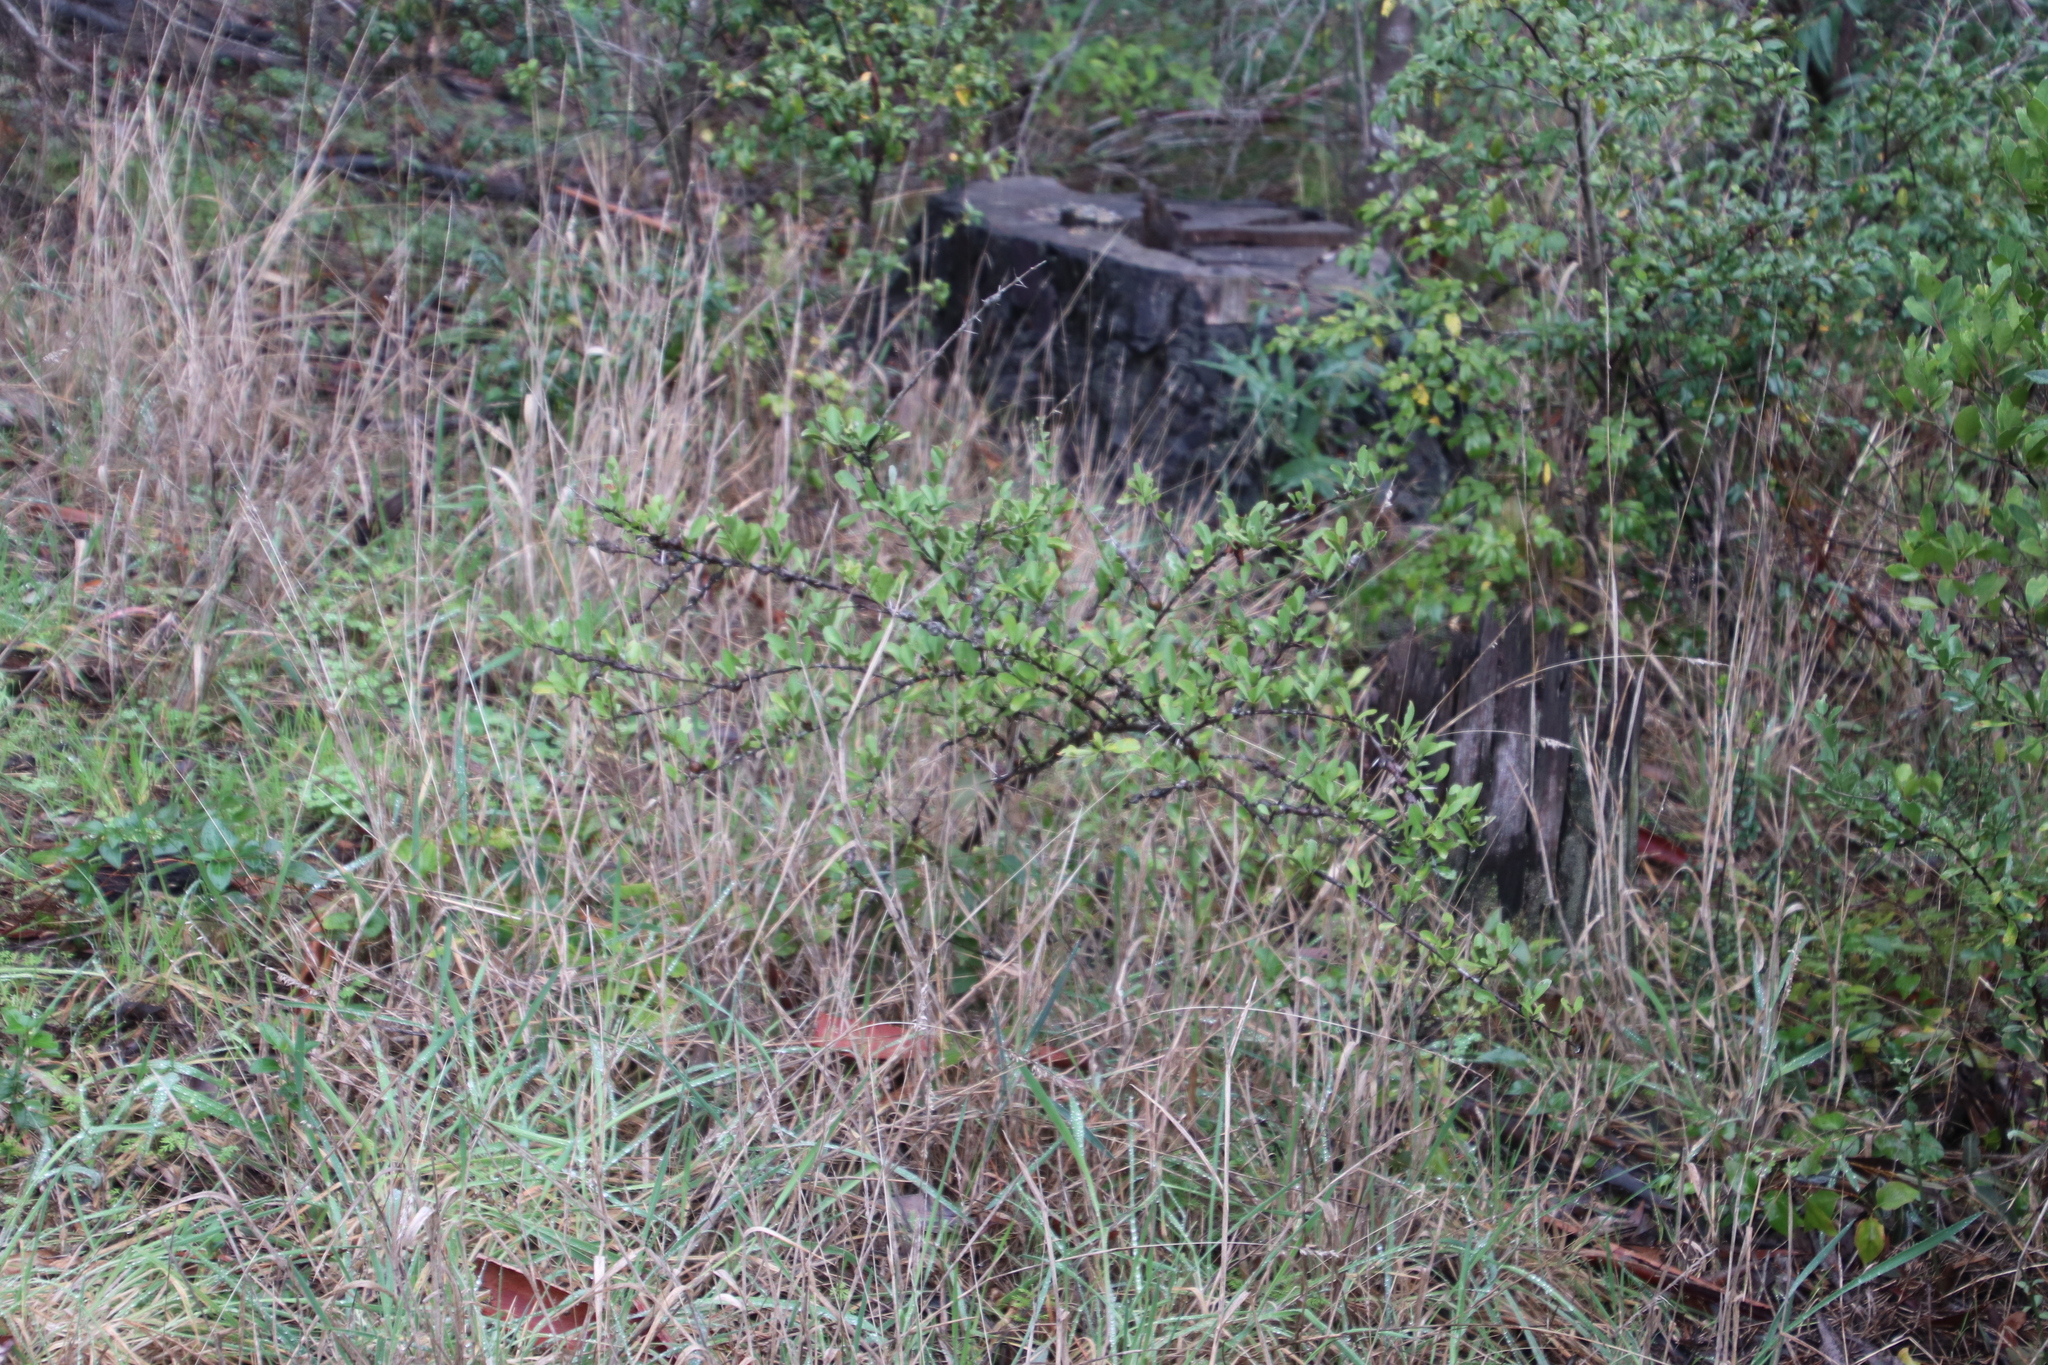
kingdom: Plantae
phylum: Tracheophyta
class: Magnoliopsida
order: Celastrales
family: Celastraceae
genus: Gymnosporia
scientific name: Gymnosporia buxifolia
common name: Common spike-thorn
